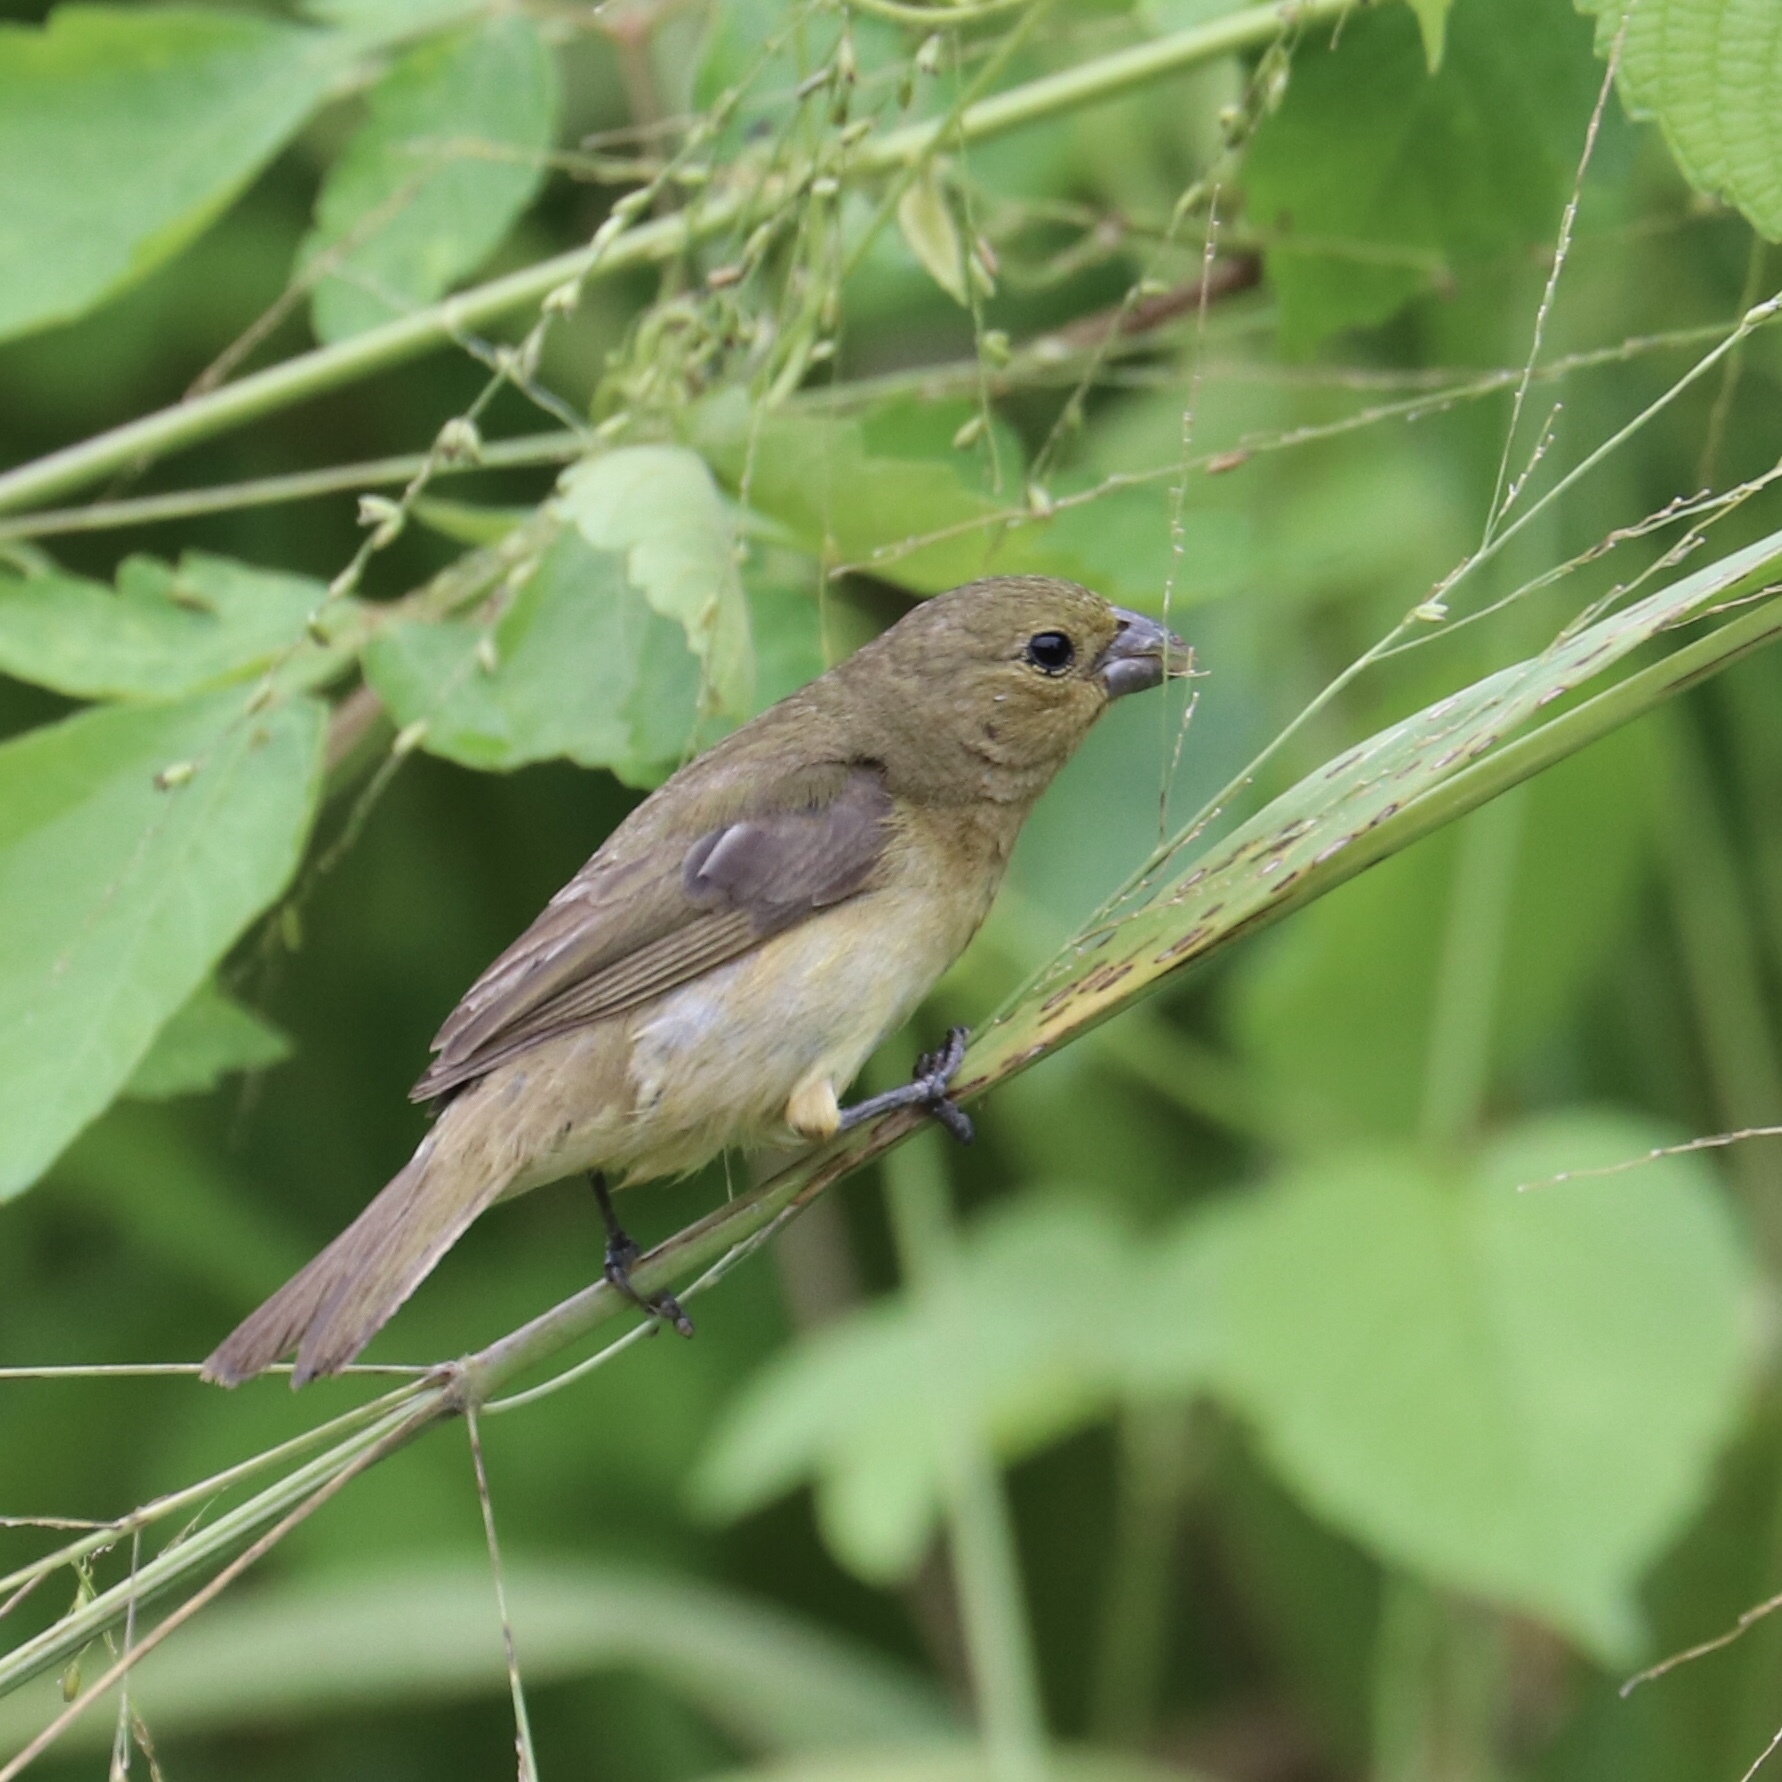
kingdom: Animalia
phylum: Chordata
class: Aves
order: Passeriformes
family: Thraupidae
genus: Sporophila
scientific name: Sporophila nigricollis
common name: Yellow-bellied seedeater
